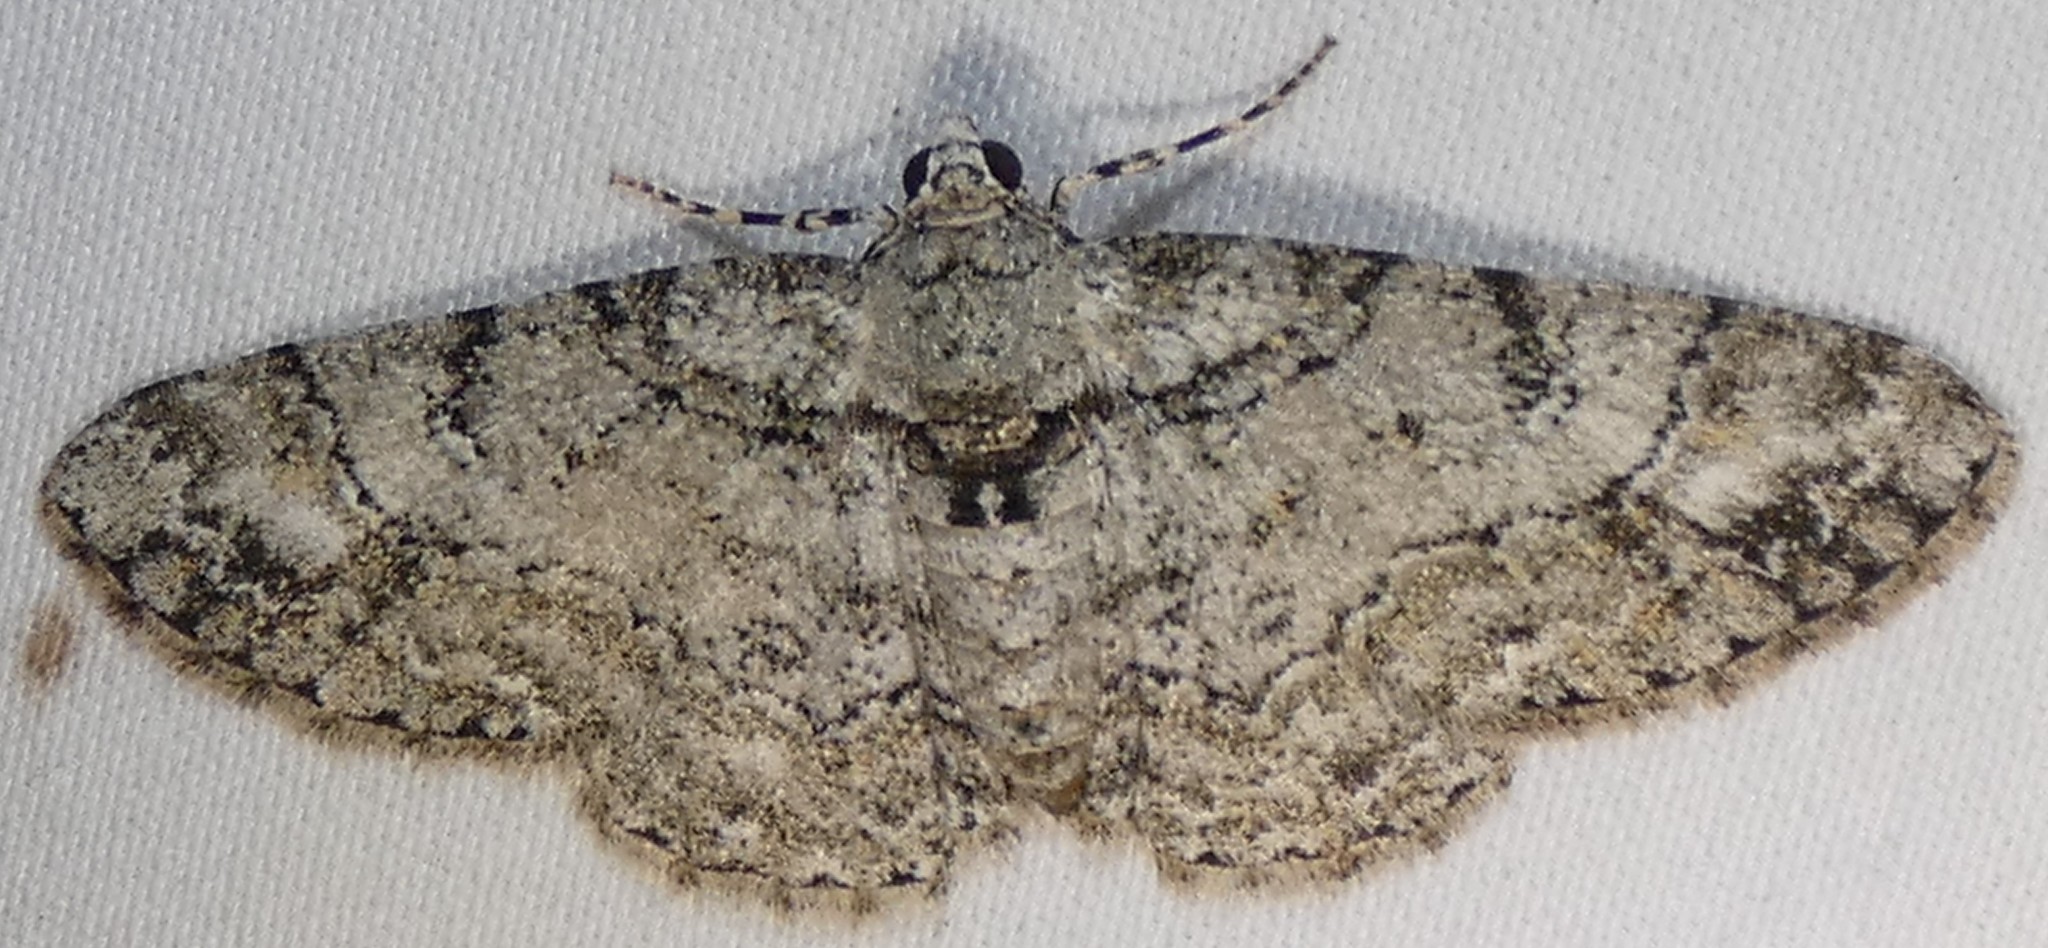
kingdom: Animalia
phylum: Arthropoda
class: Insecta
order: Lepidoptera
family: Geometridae
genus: Cleora
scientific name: Cleora sublunaria
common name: Double-lined gray
